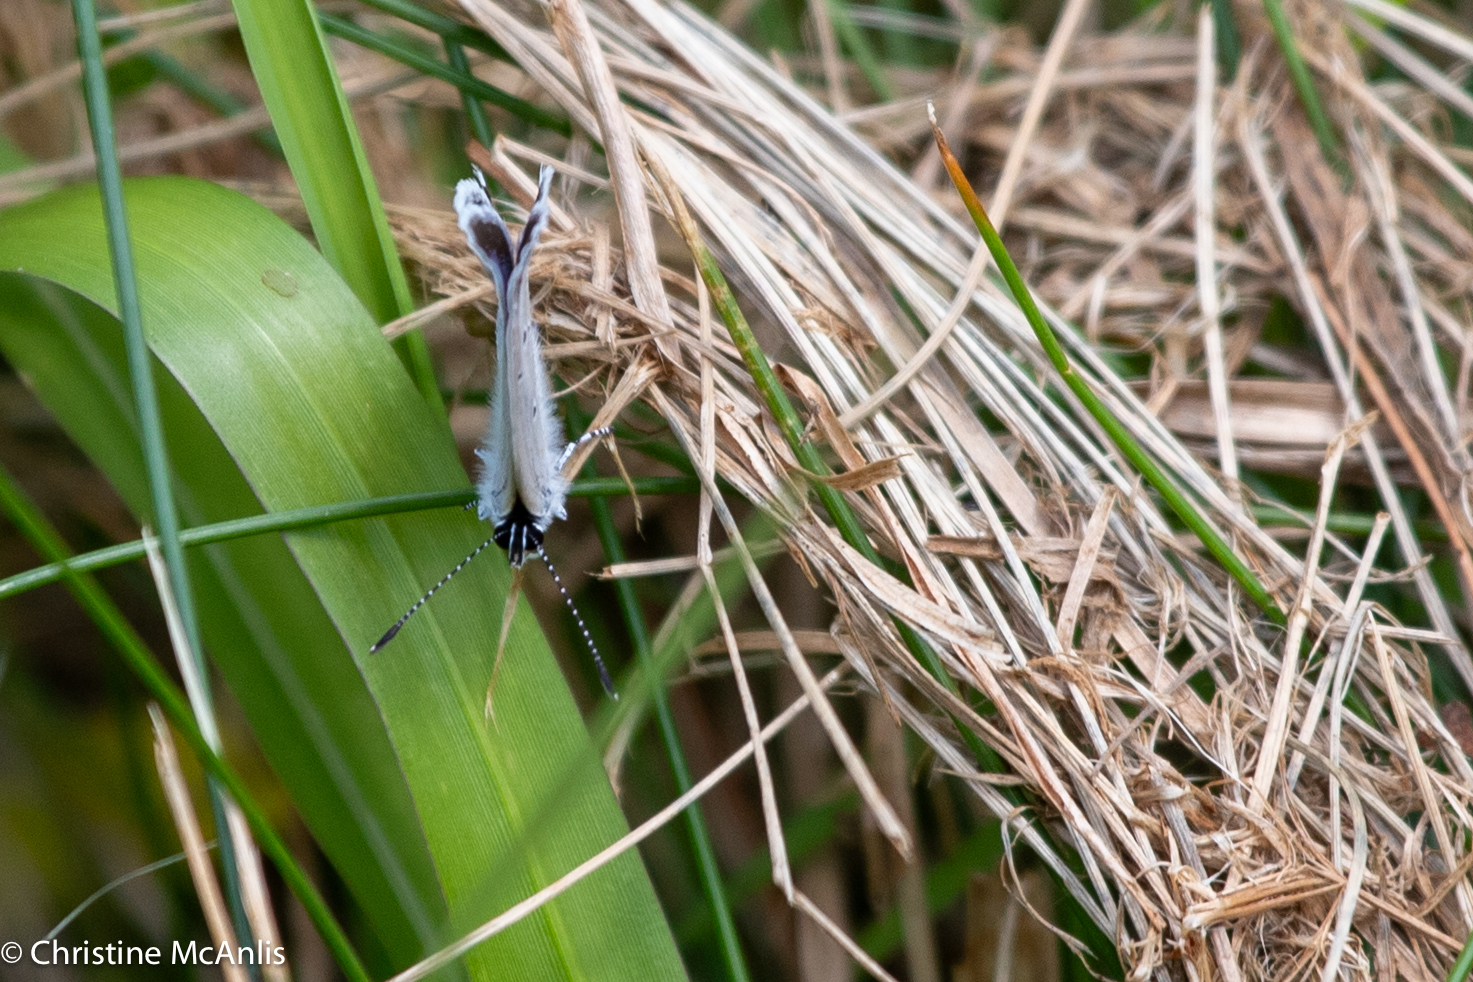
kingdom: Animalia
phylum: Arthropoda
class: Insecta
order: Lepidoptera
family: Lycaenidae
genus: Elkalyce
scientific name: Elkalyce comyntas
